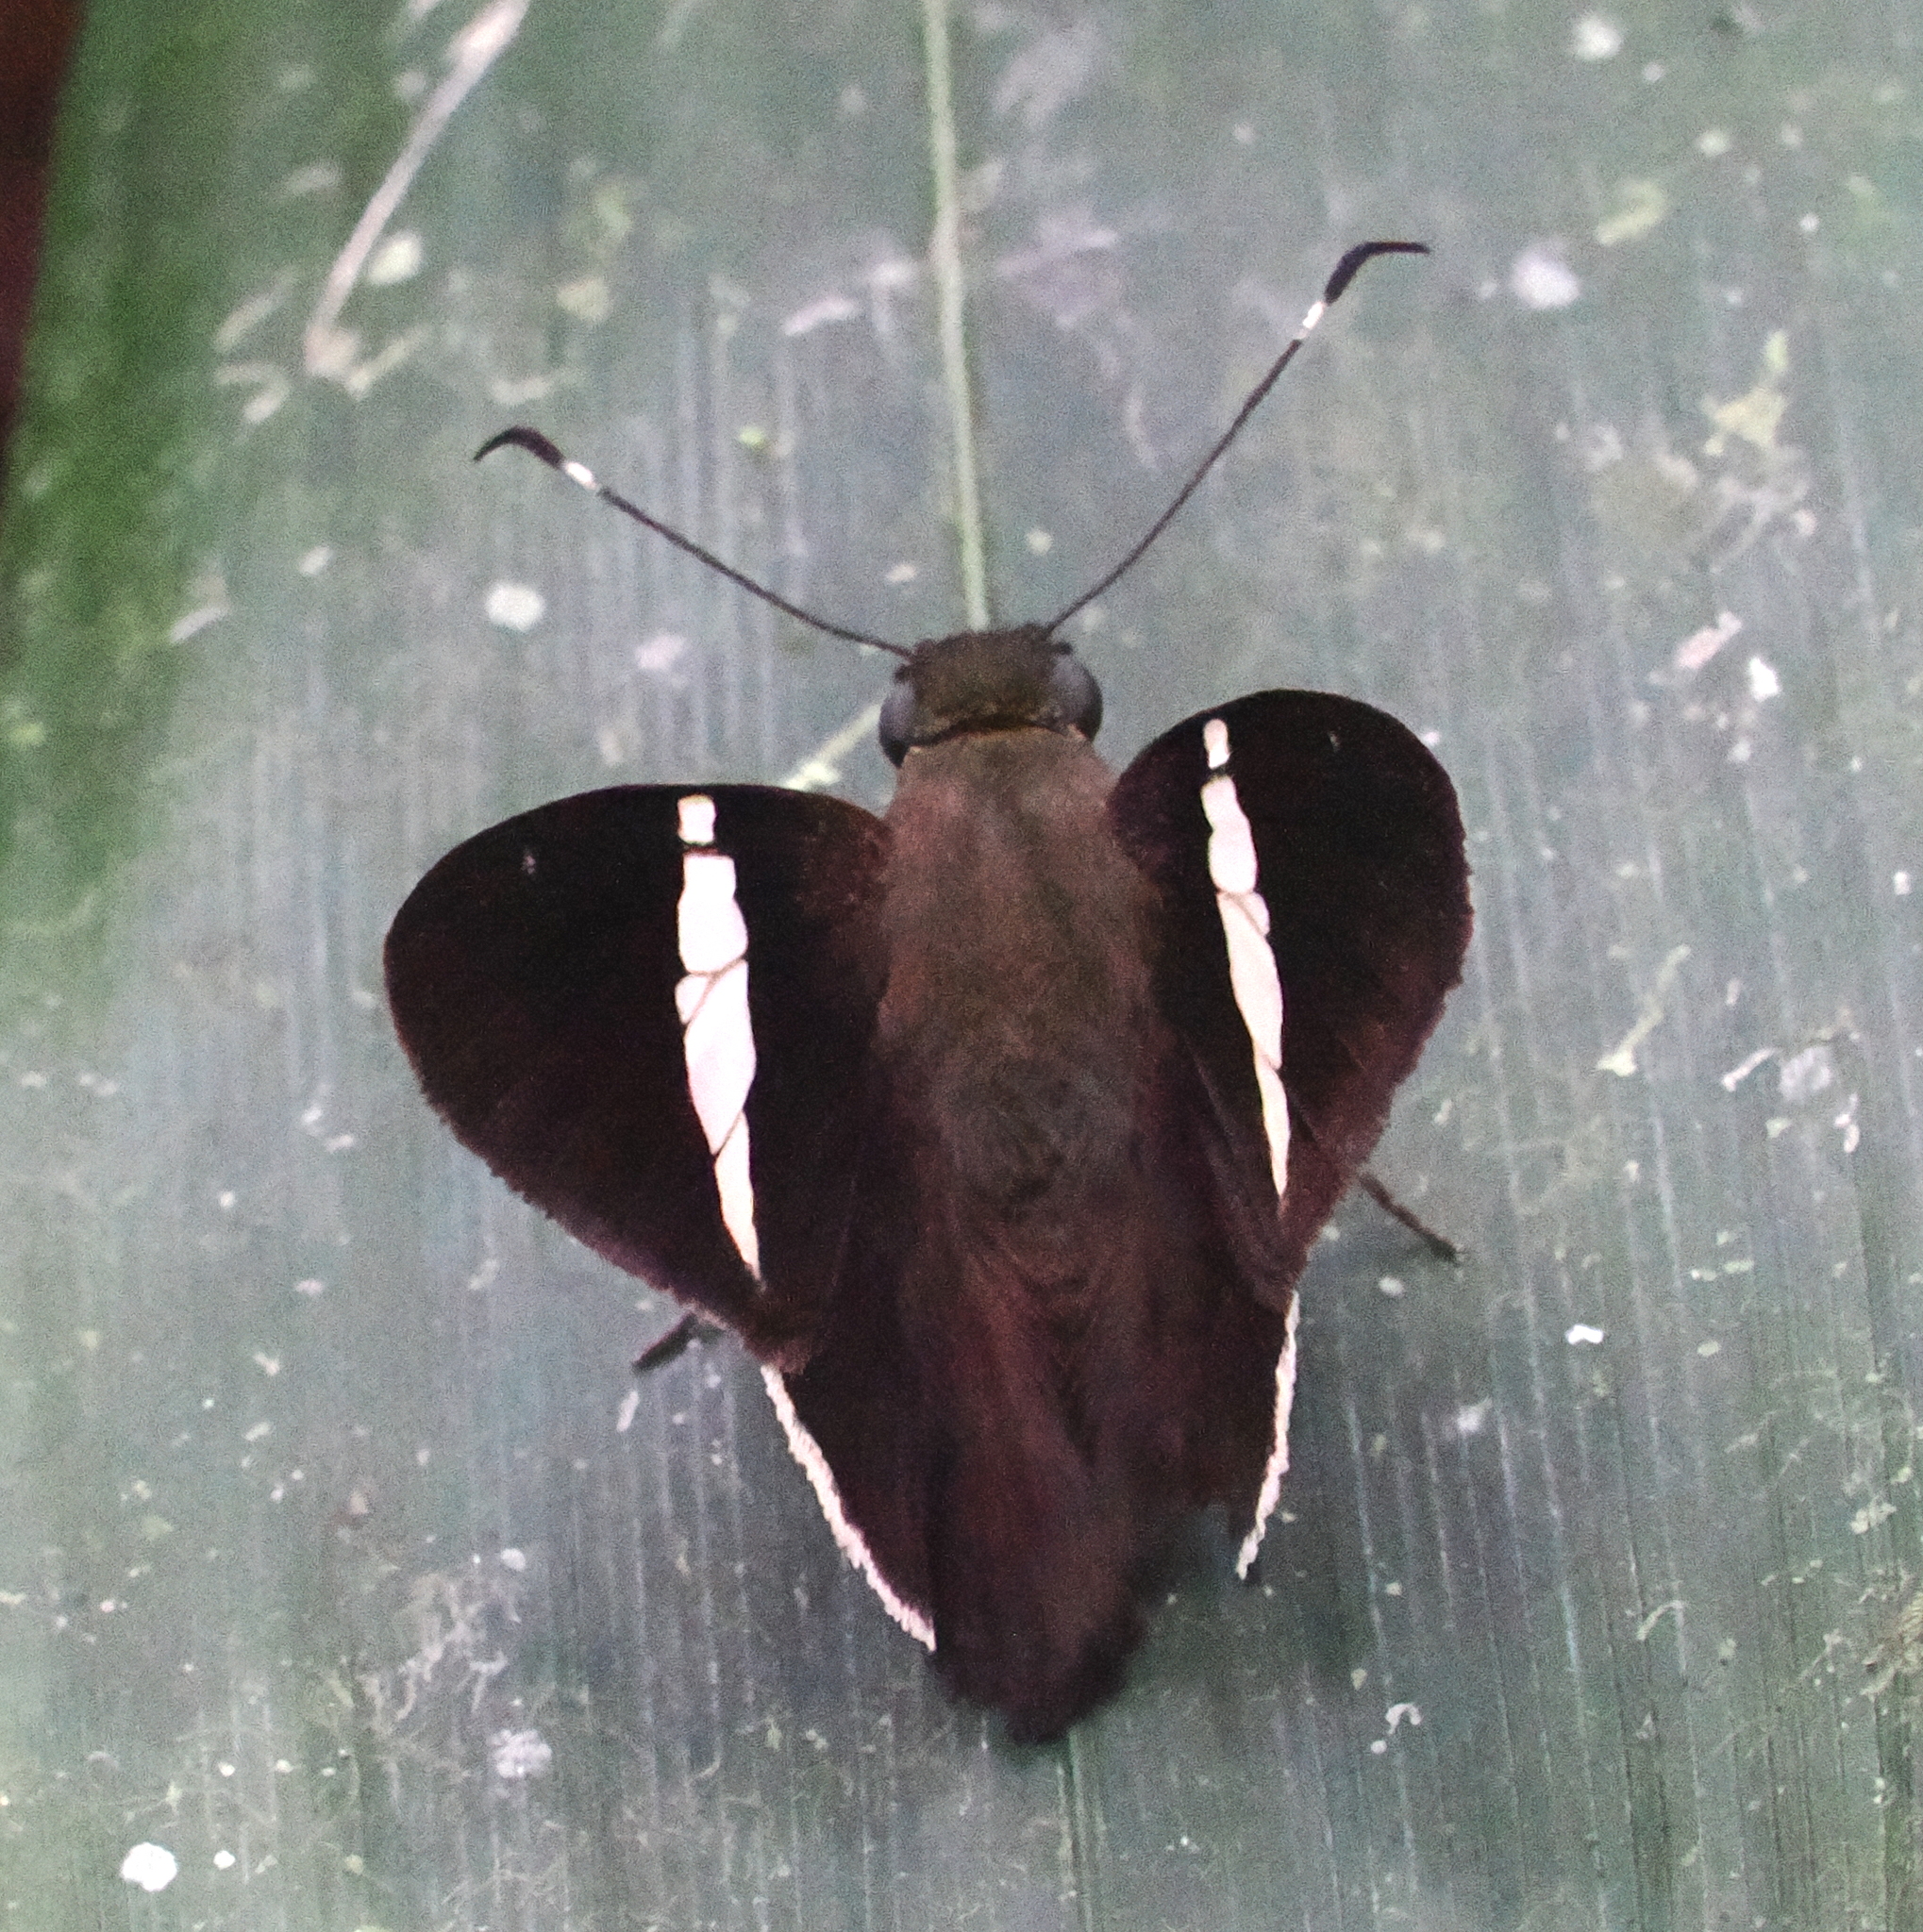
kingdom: Animalia
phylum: Arthropoda
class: Insecta
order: Lepidoptera
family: Hesperiidae
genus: Autochton
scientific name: Autochton zarex
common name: Sharp banded-skipper
